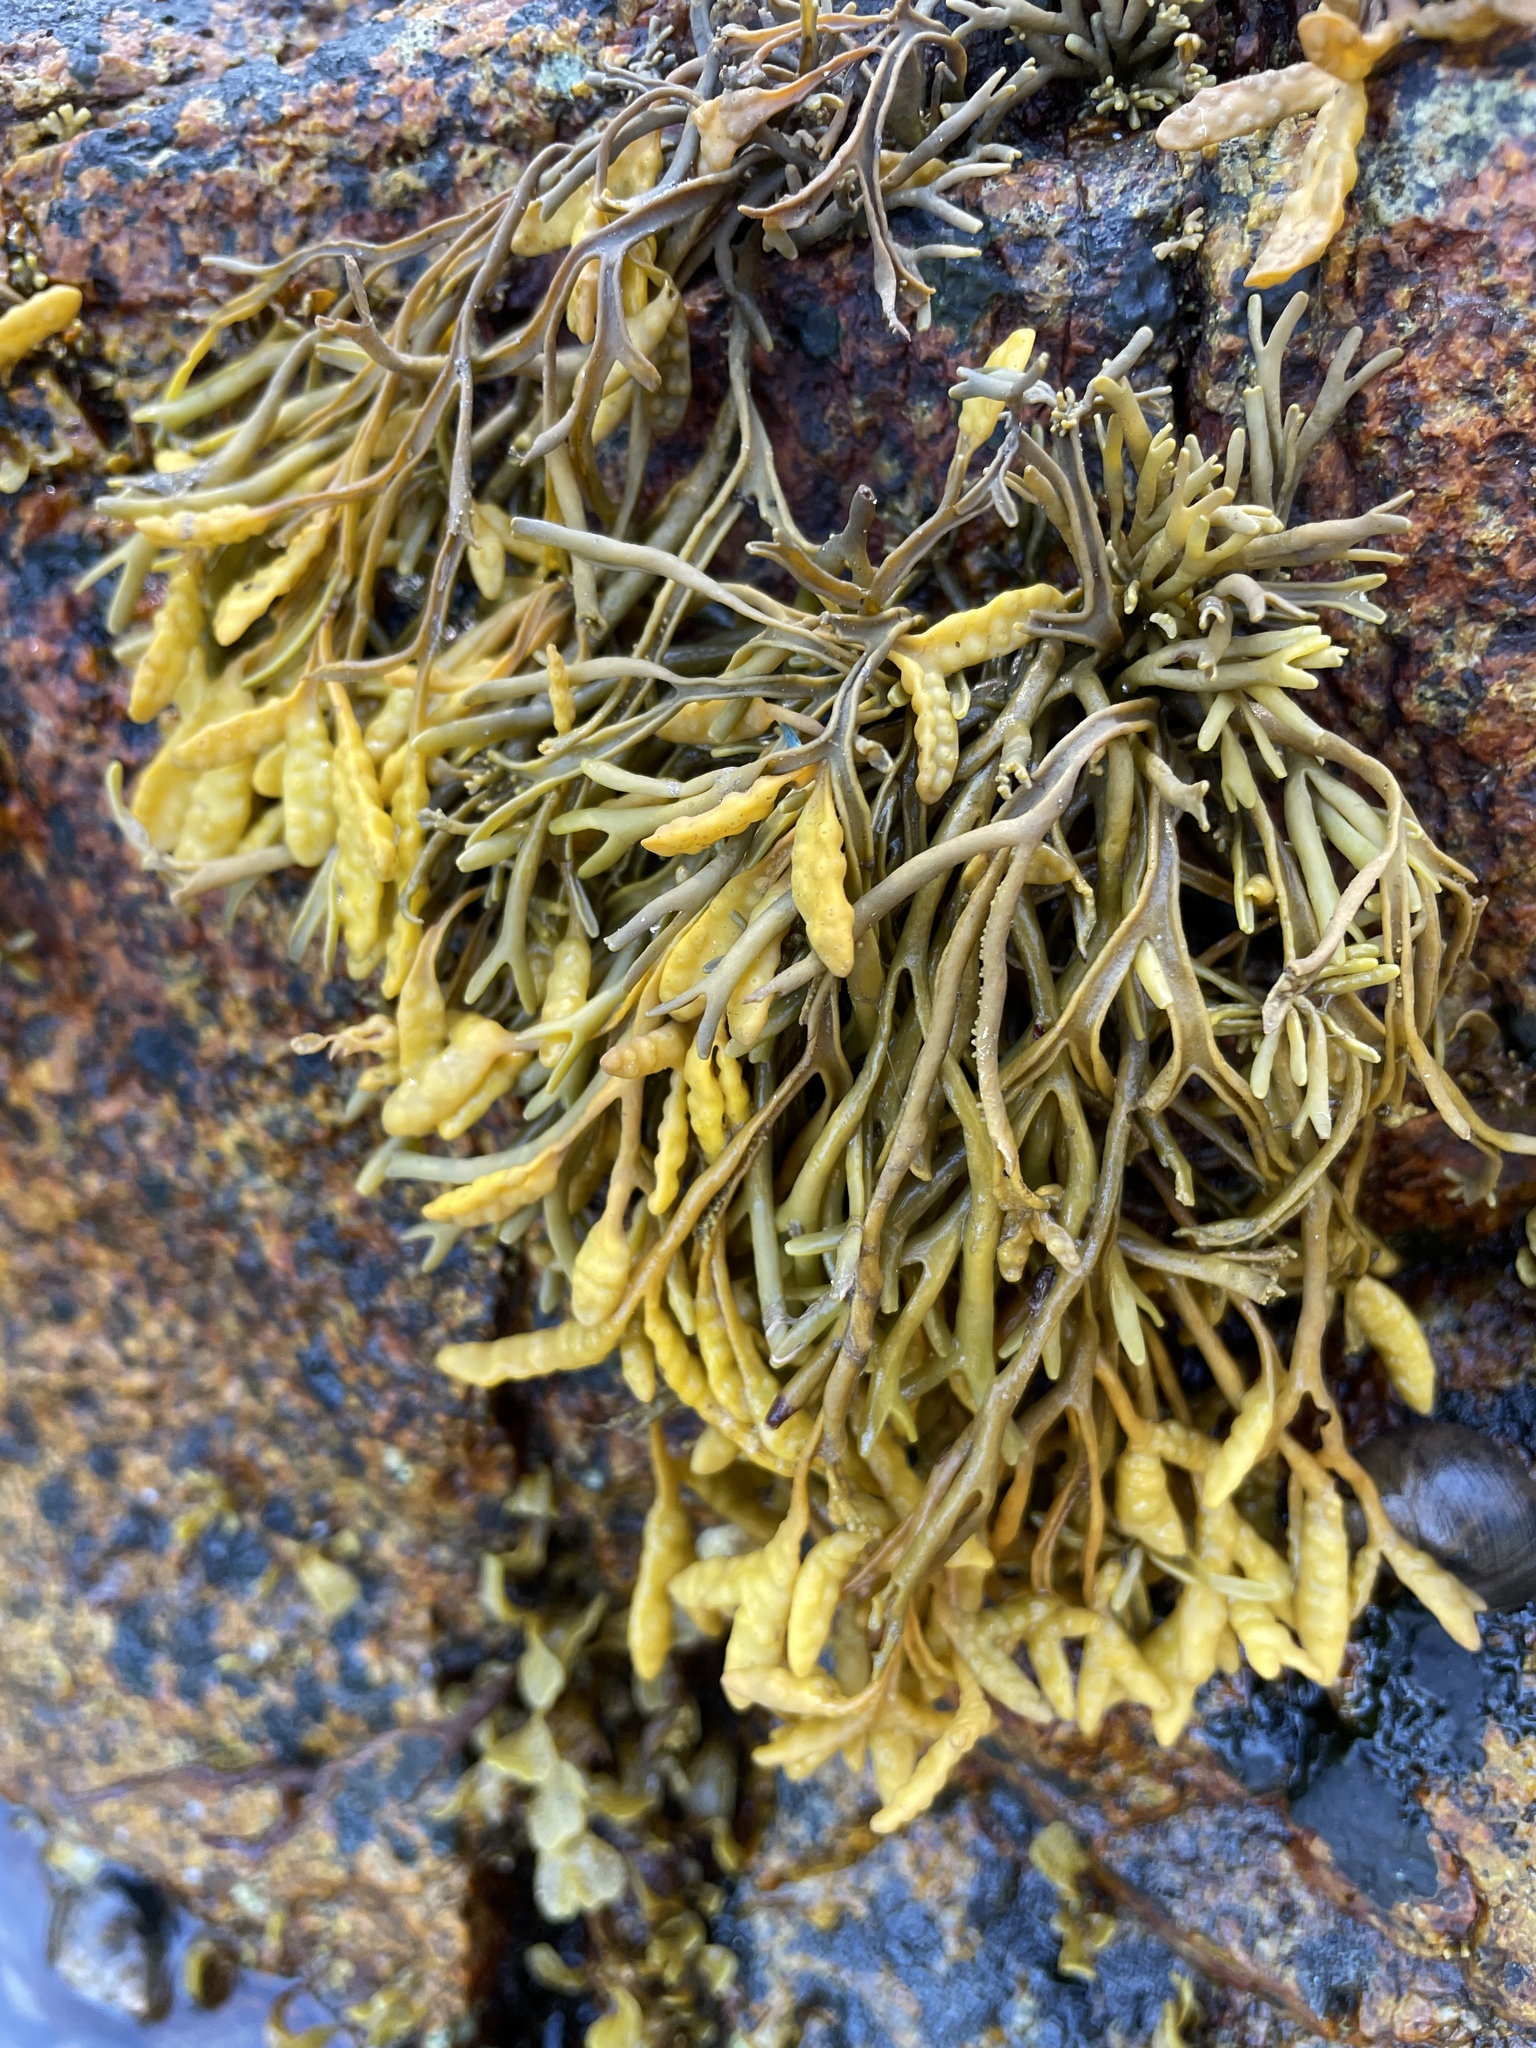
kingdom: Chromista
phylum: Ochrophyta
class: Phaeophyceae
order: Fucales
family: Fucaceae
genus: Pelvetia
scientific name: Pelvetia canaliculata
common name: Channelled wrack
